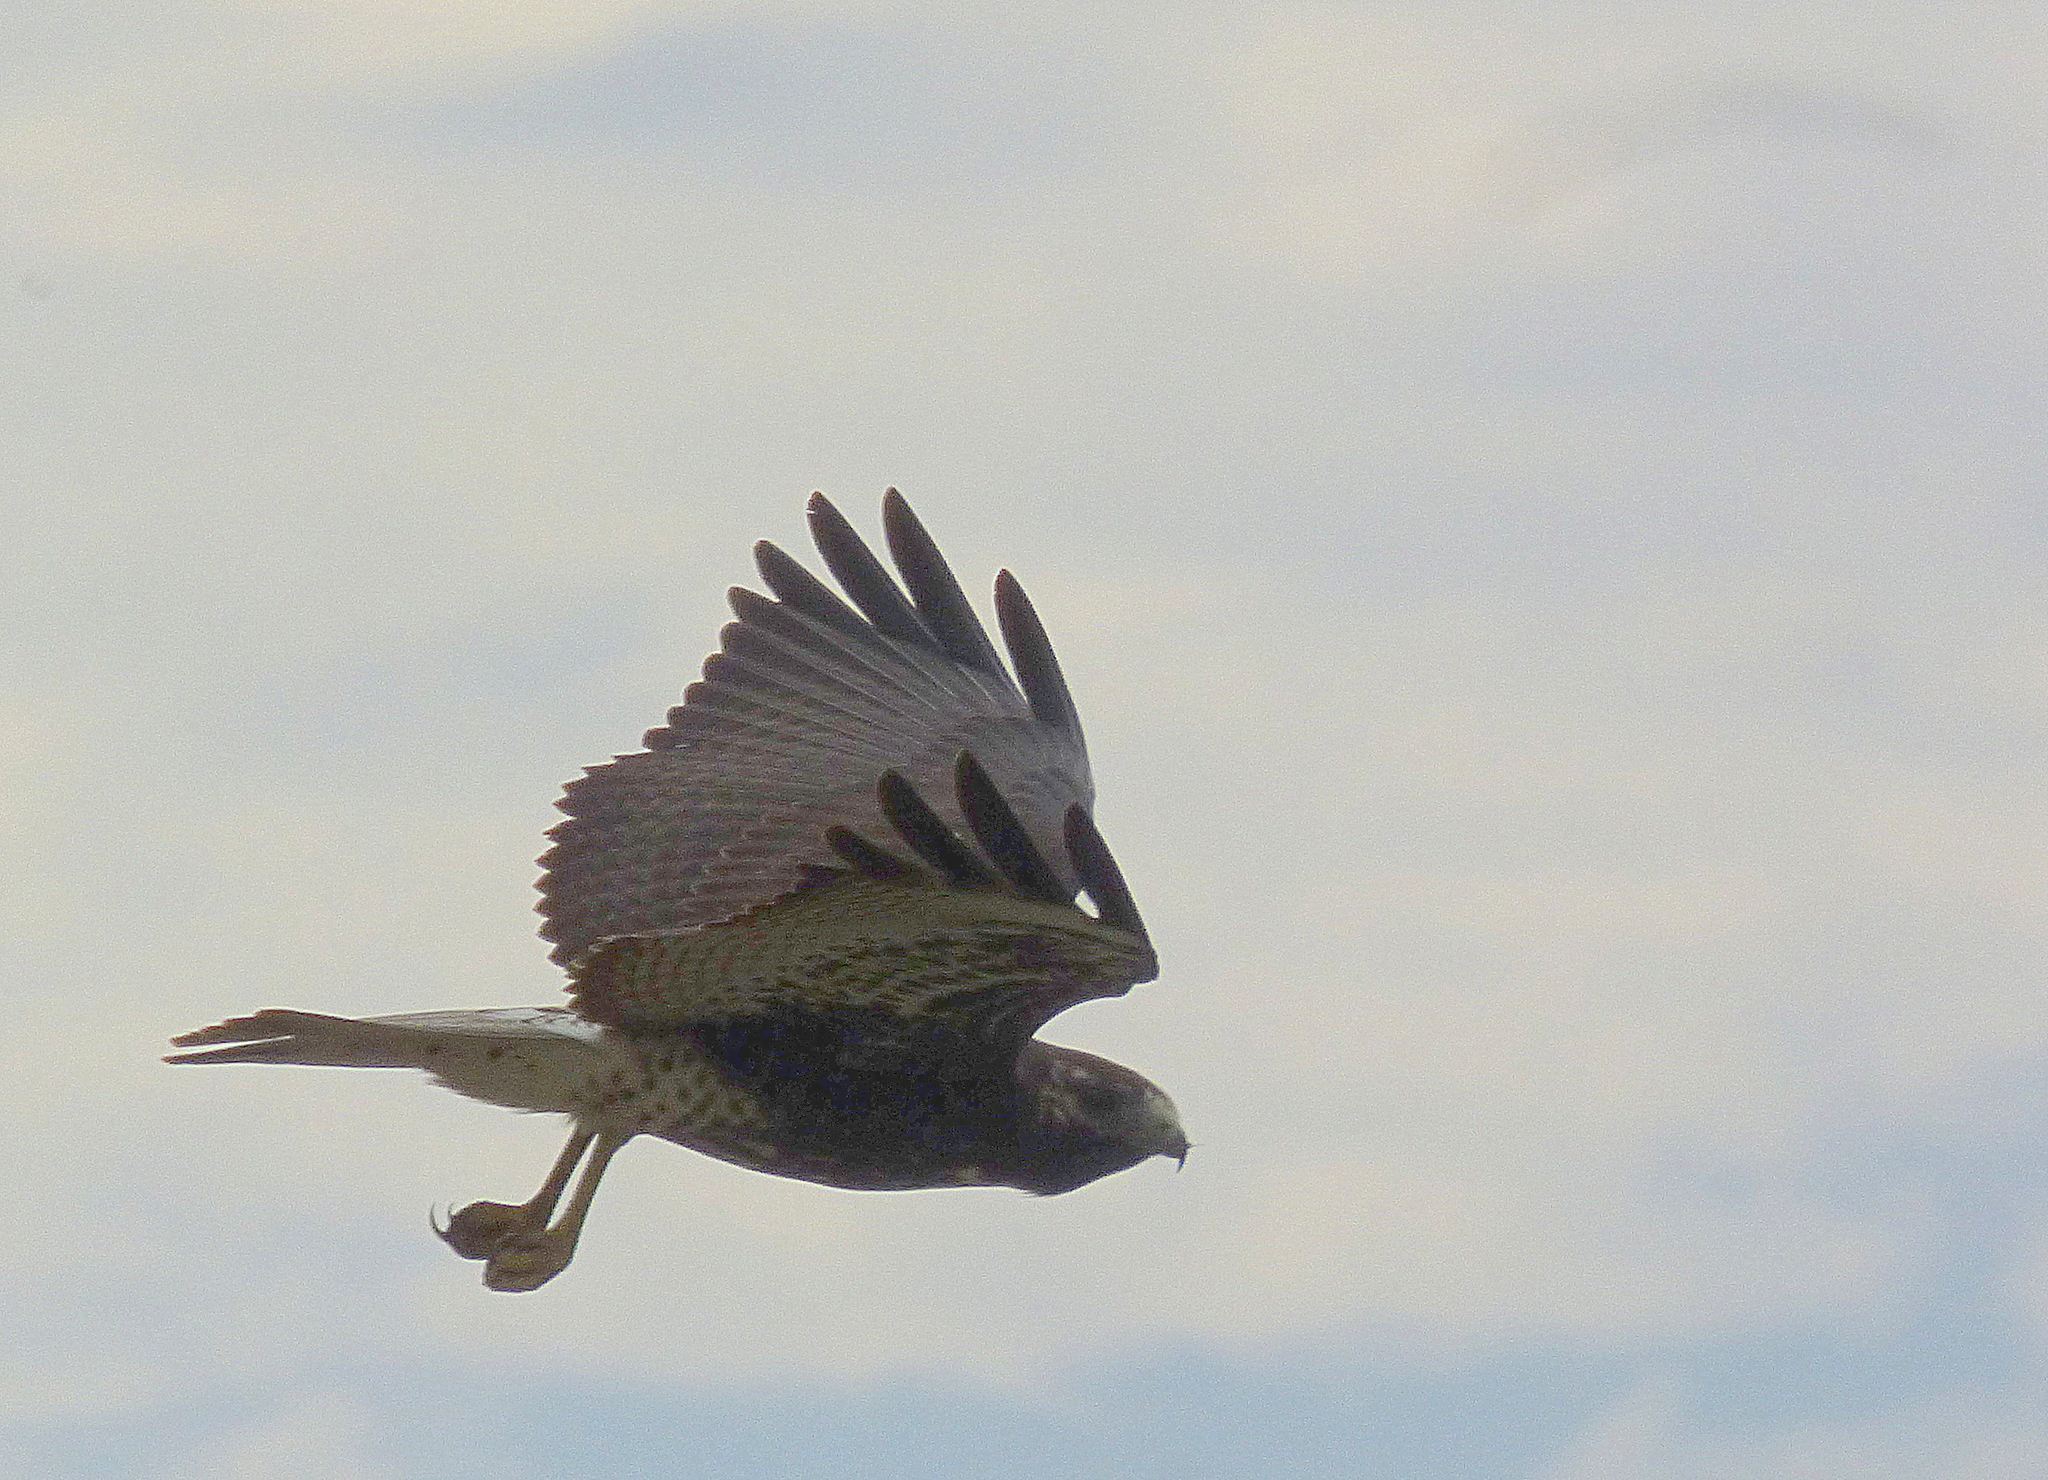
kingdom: Animalia
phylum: Chordata
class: Aves
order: Accipitriformes
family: Accipitridae
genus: Buteo
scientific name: Buteo albicaudatus
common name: White-tailed hawk
